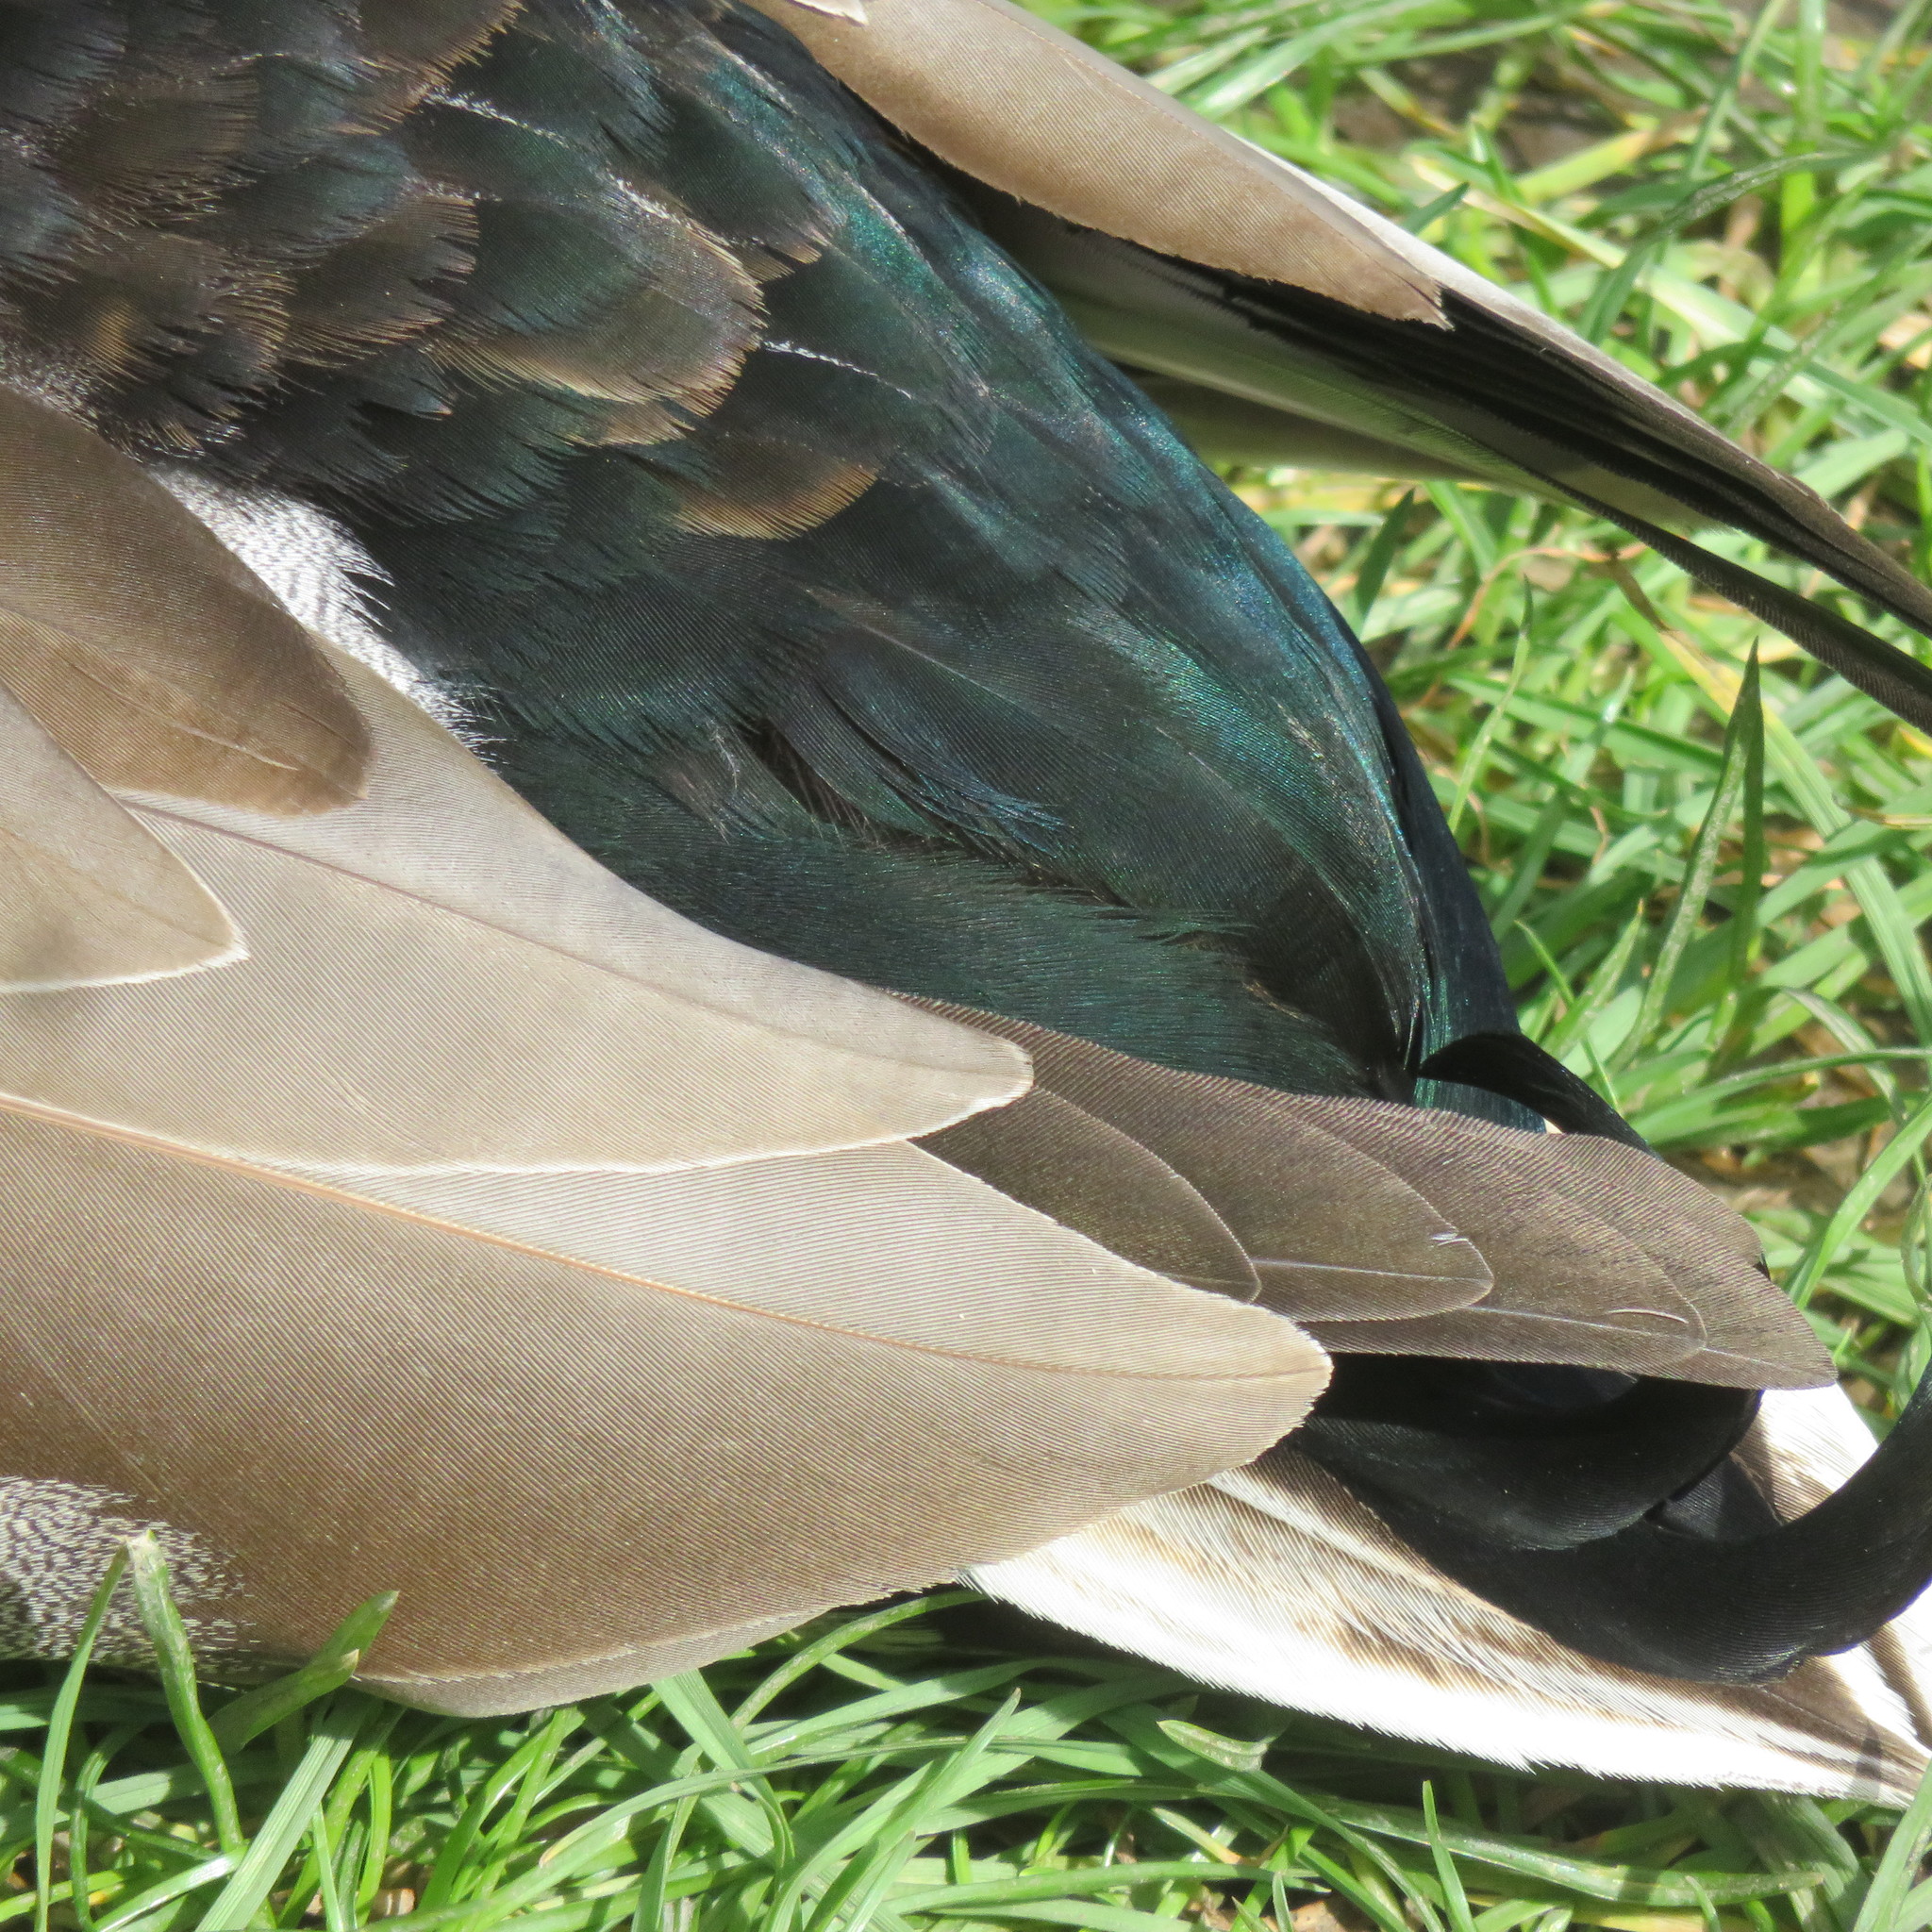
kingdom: Animalia
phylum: Chordata
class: Aves
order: Anseriformes
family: Anatidae
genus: Anas
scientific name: Anas platyrhynchos
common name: Mallard
